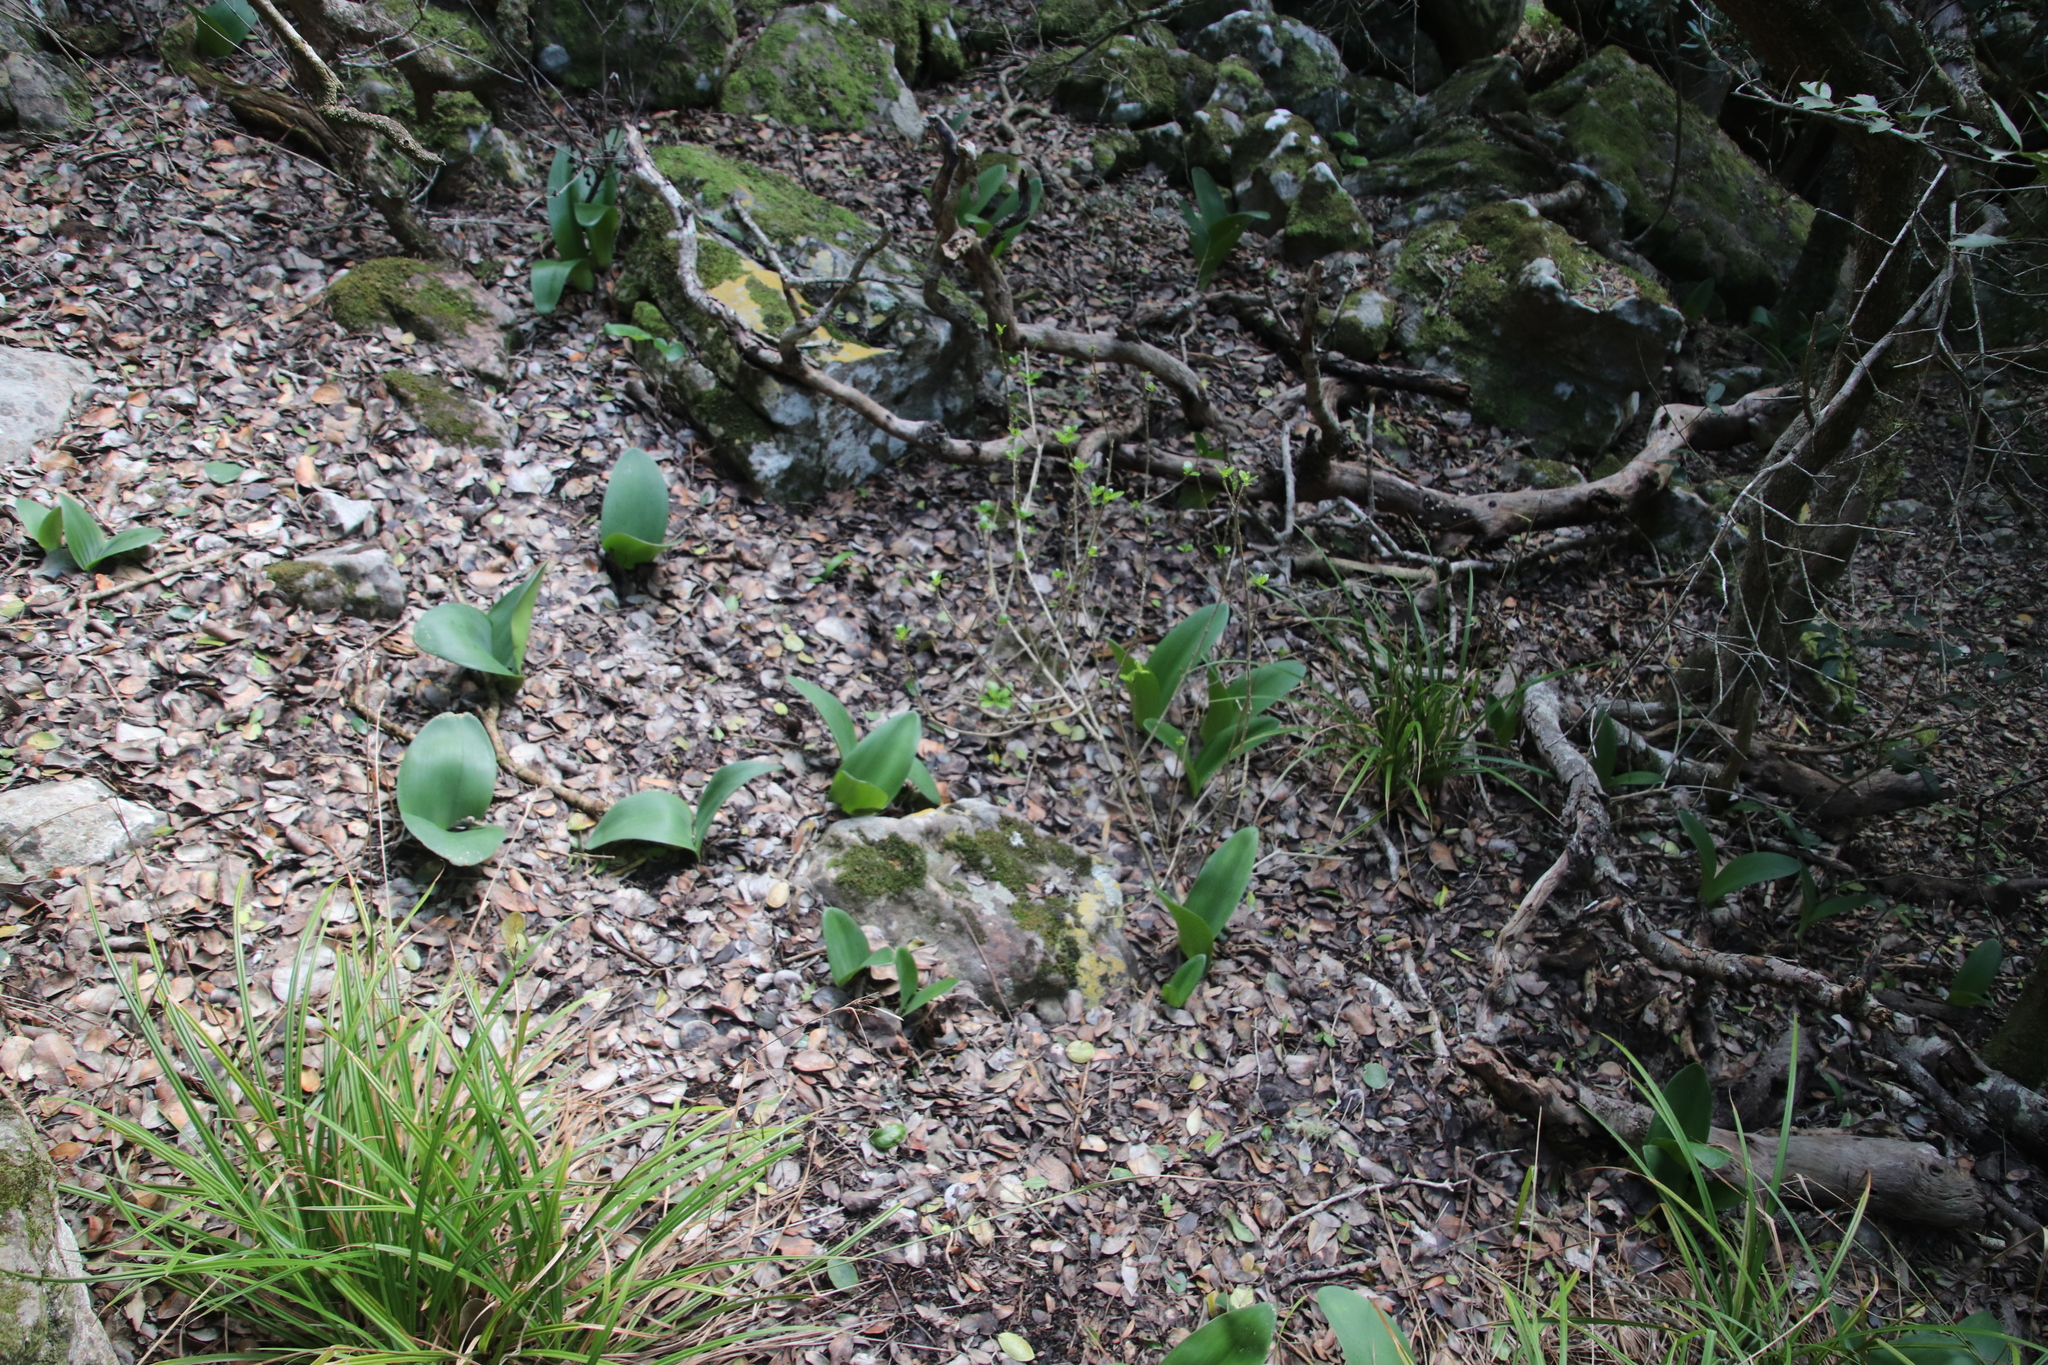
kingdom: Plantae
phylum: Tracheophyta
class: Liliopsida
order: Asparagales
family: Amaryllidaceae
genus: Haemanthus
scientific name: Haemanthus coccineus
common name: Cape-tulip
